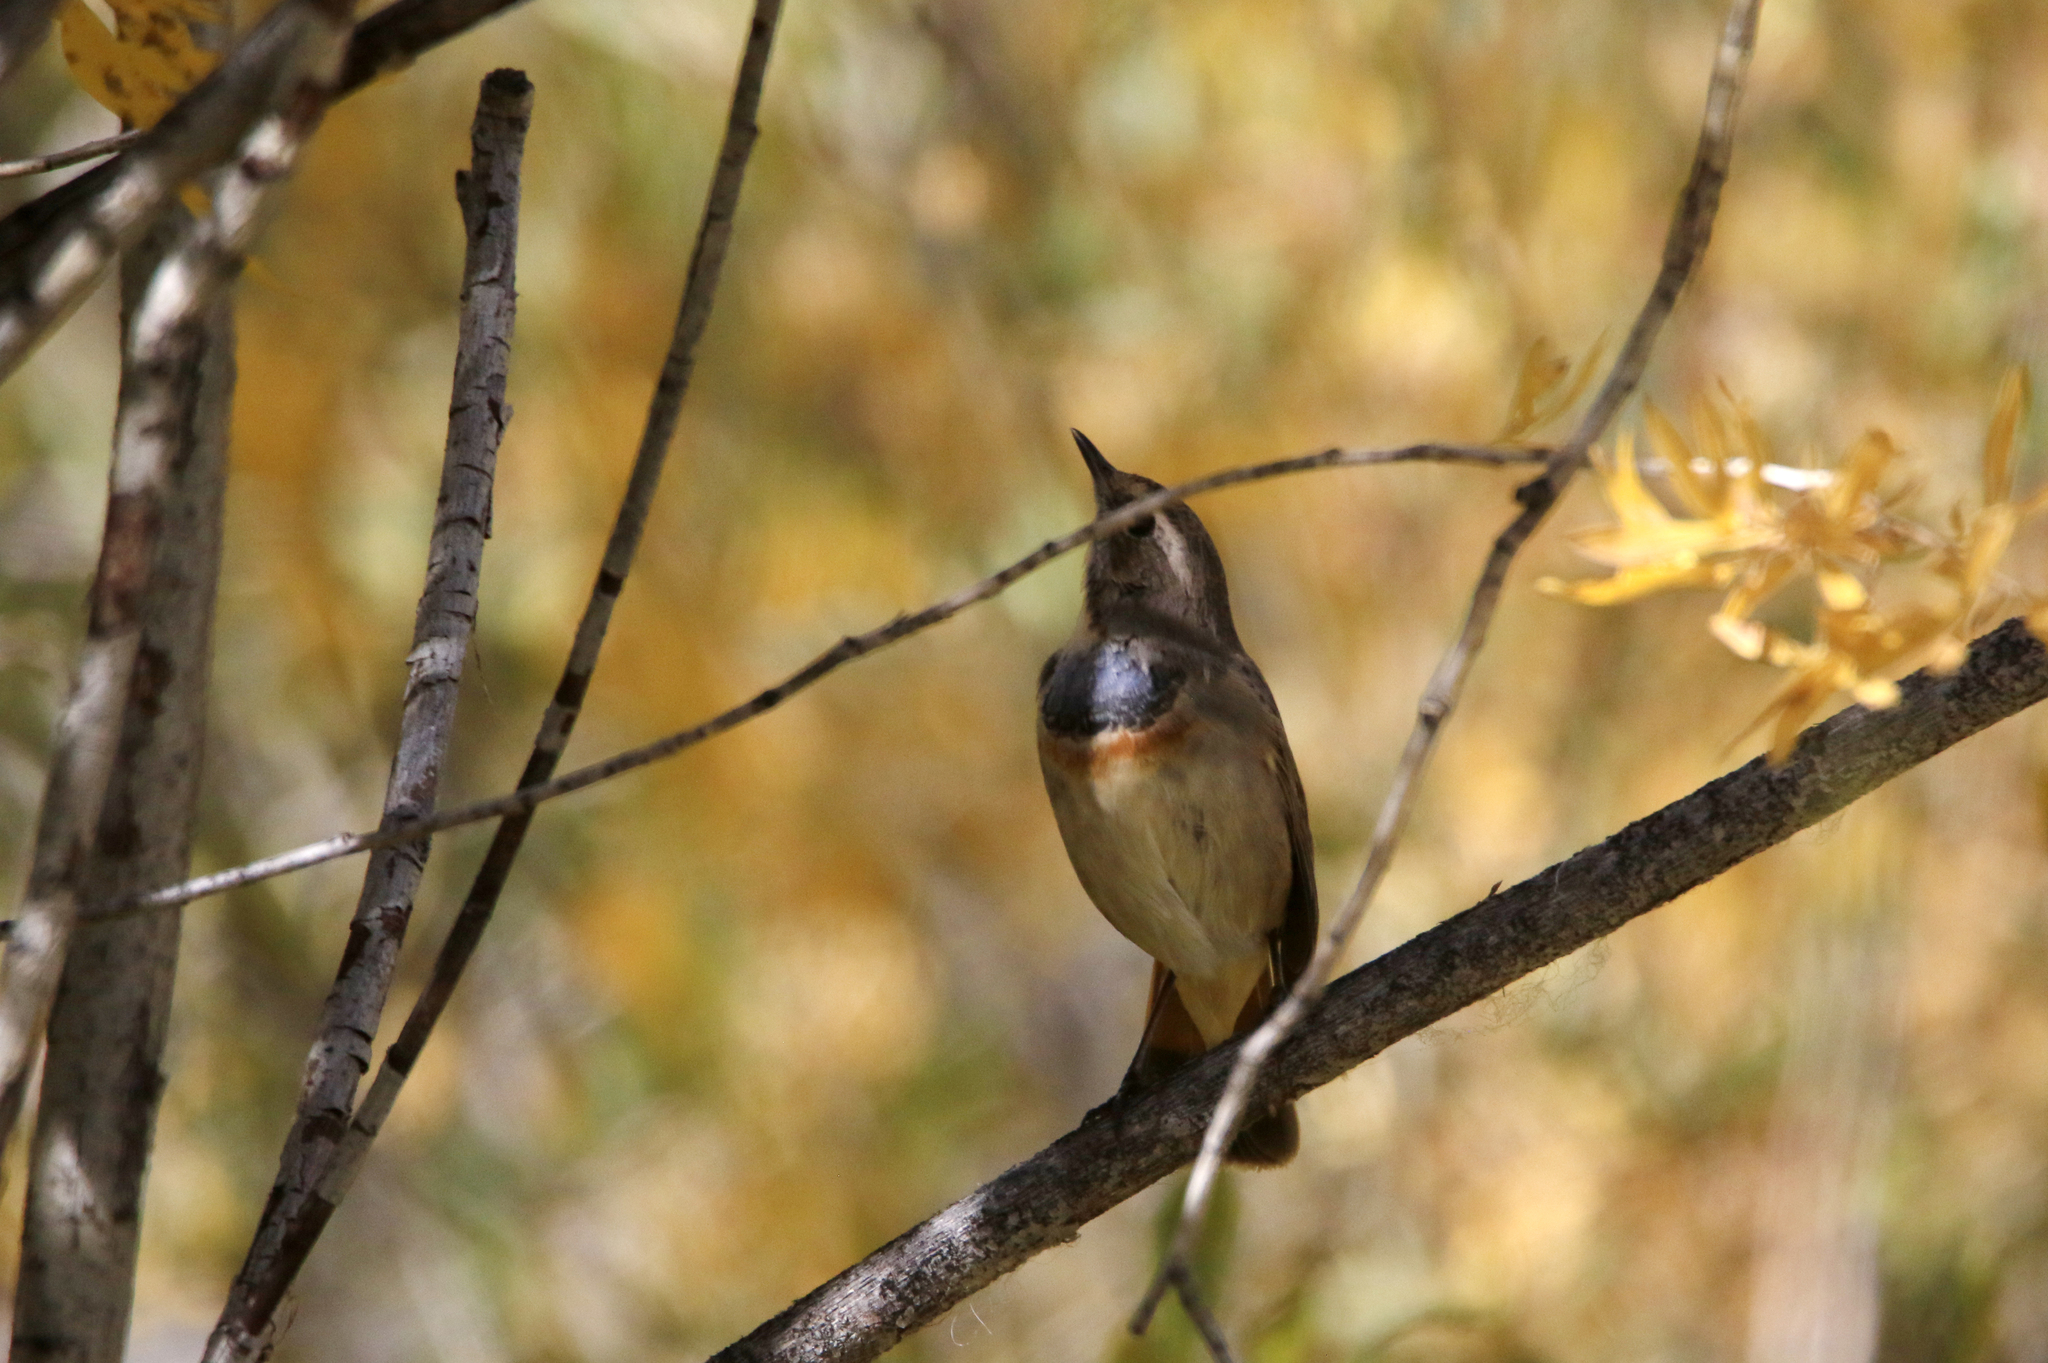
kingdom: Animalia
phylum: Chordata
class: Aves
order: Passeriformes
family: Muscicapidae
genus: Luscinia
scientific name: Luscinia svecica
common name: Bluethroat
